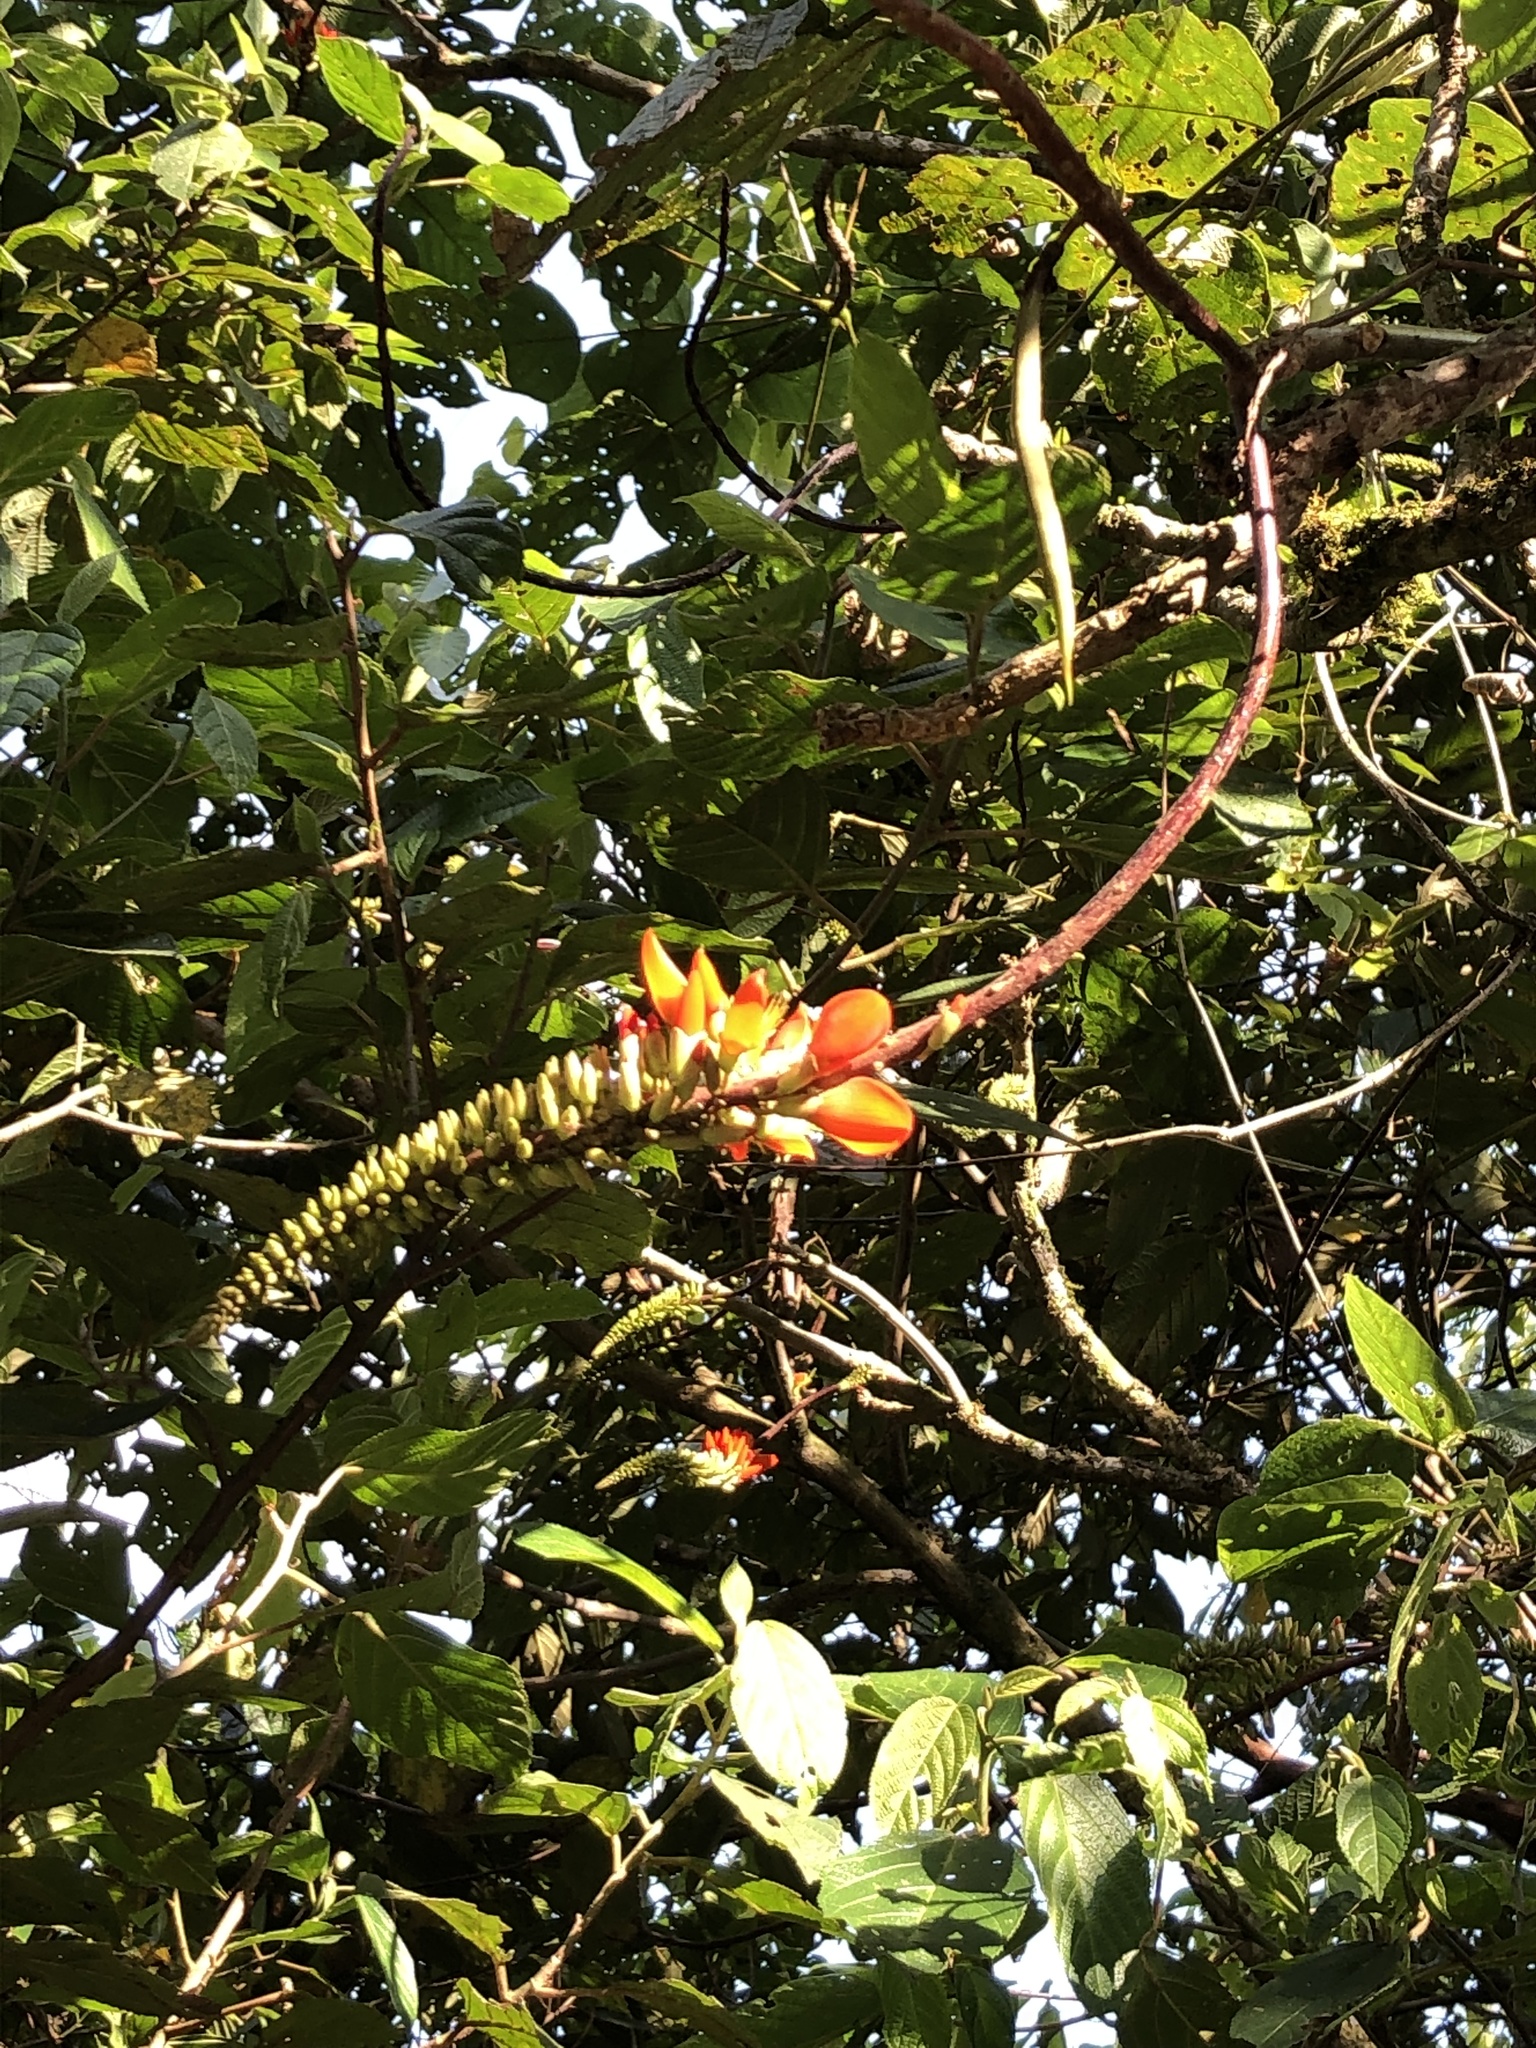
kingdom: Plantae
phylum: Tracheophyta
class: Magnoliopsida
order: Fabales
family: Fabaceae
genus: Erythrina
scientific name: Erythrina edulis
